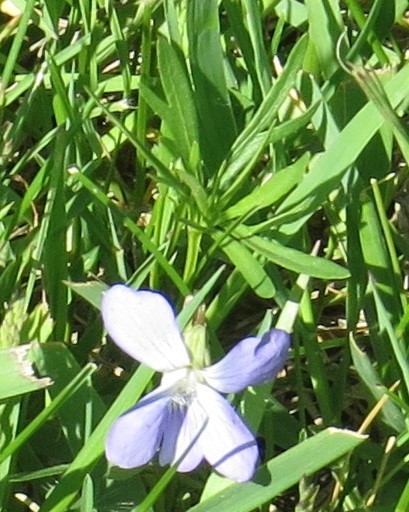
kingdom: Plantae
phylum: Tracheophyta
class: Magnoliopsida
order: Malpighiales
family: Violaceae
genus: Viola
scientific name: Viola pedatifida
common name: Prairie violet
